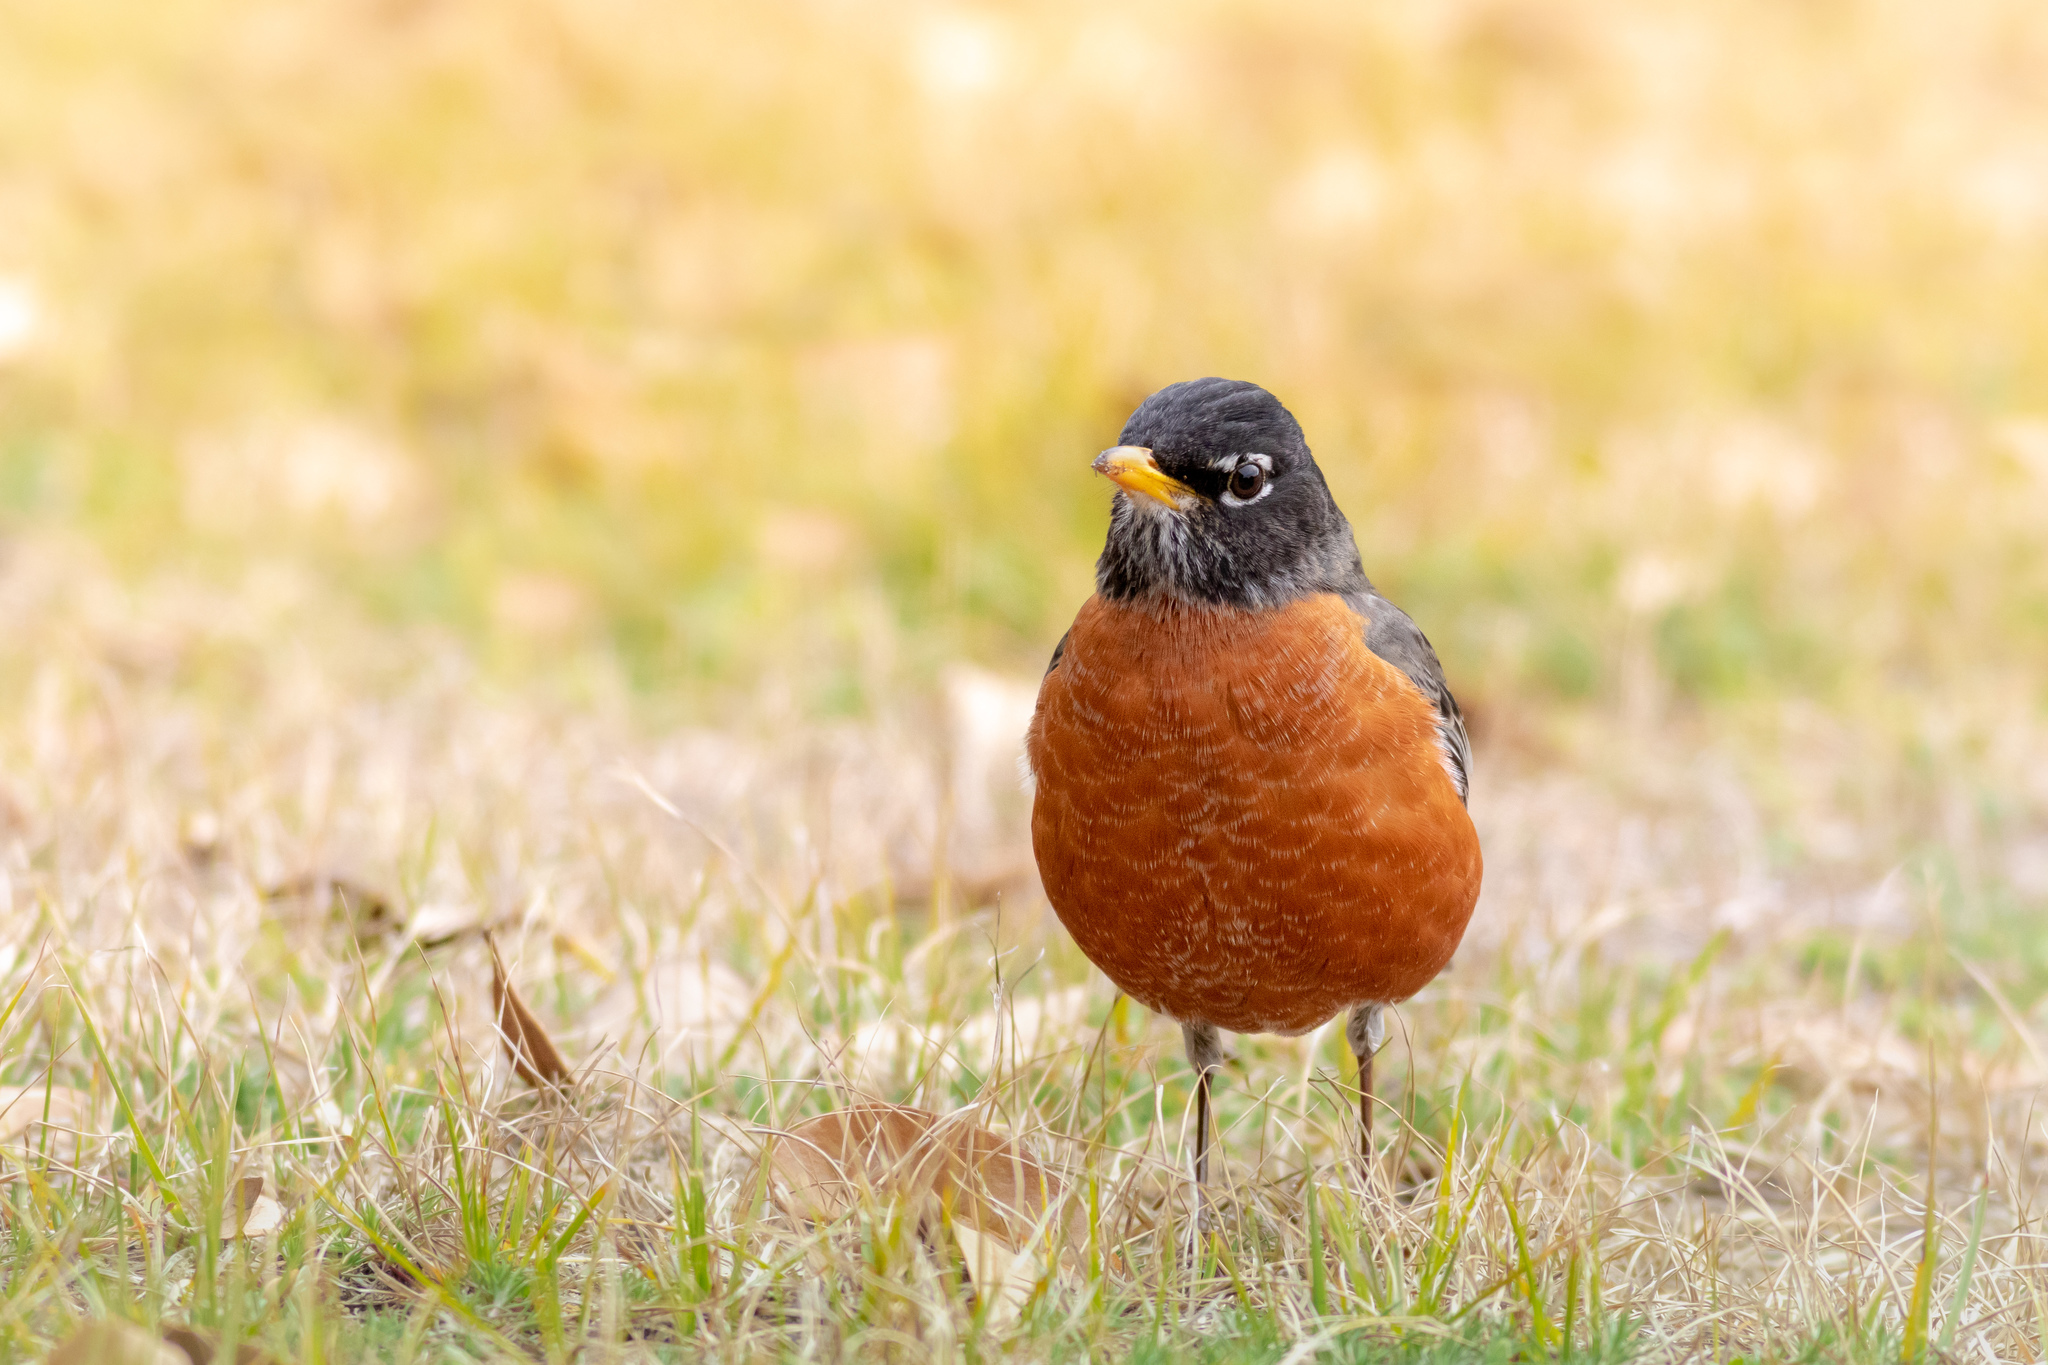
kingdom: Animalia
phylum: Chordata
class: Aves
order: Passeriformes
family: Turdidae
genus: Turdus
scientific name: Turdus migratorius
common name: American robin
